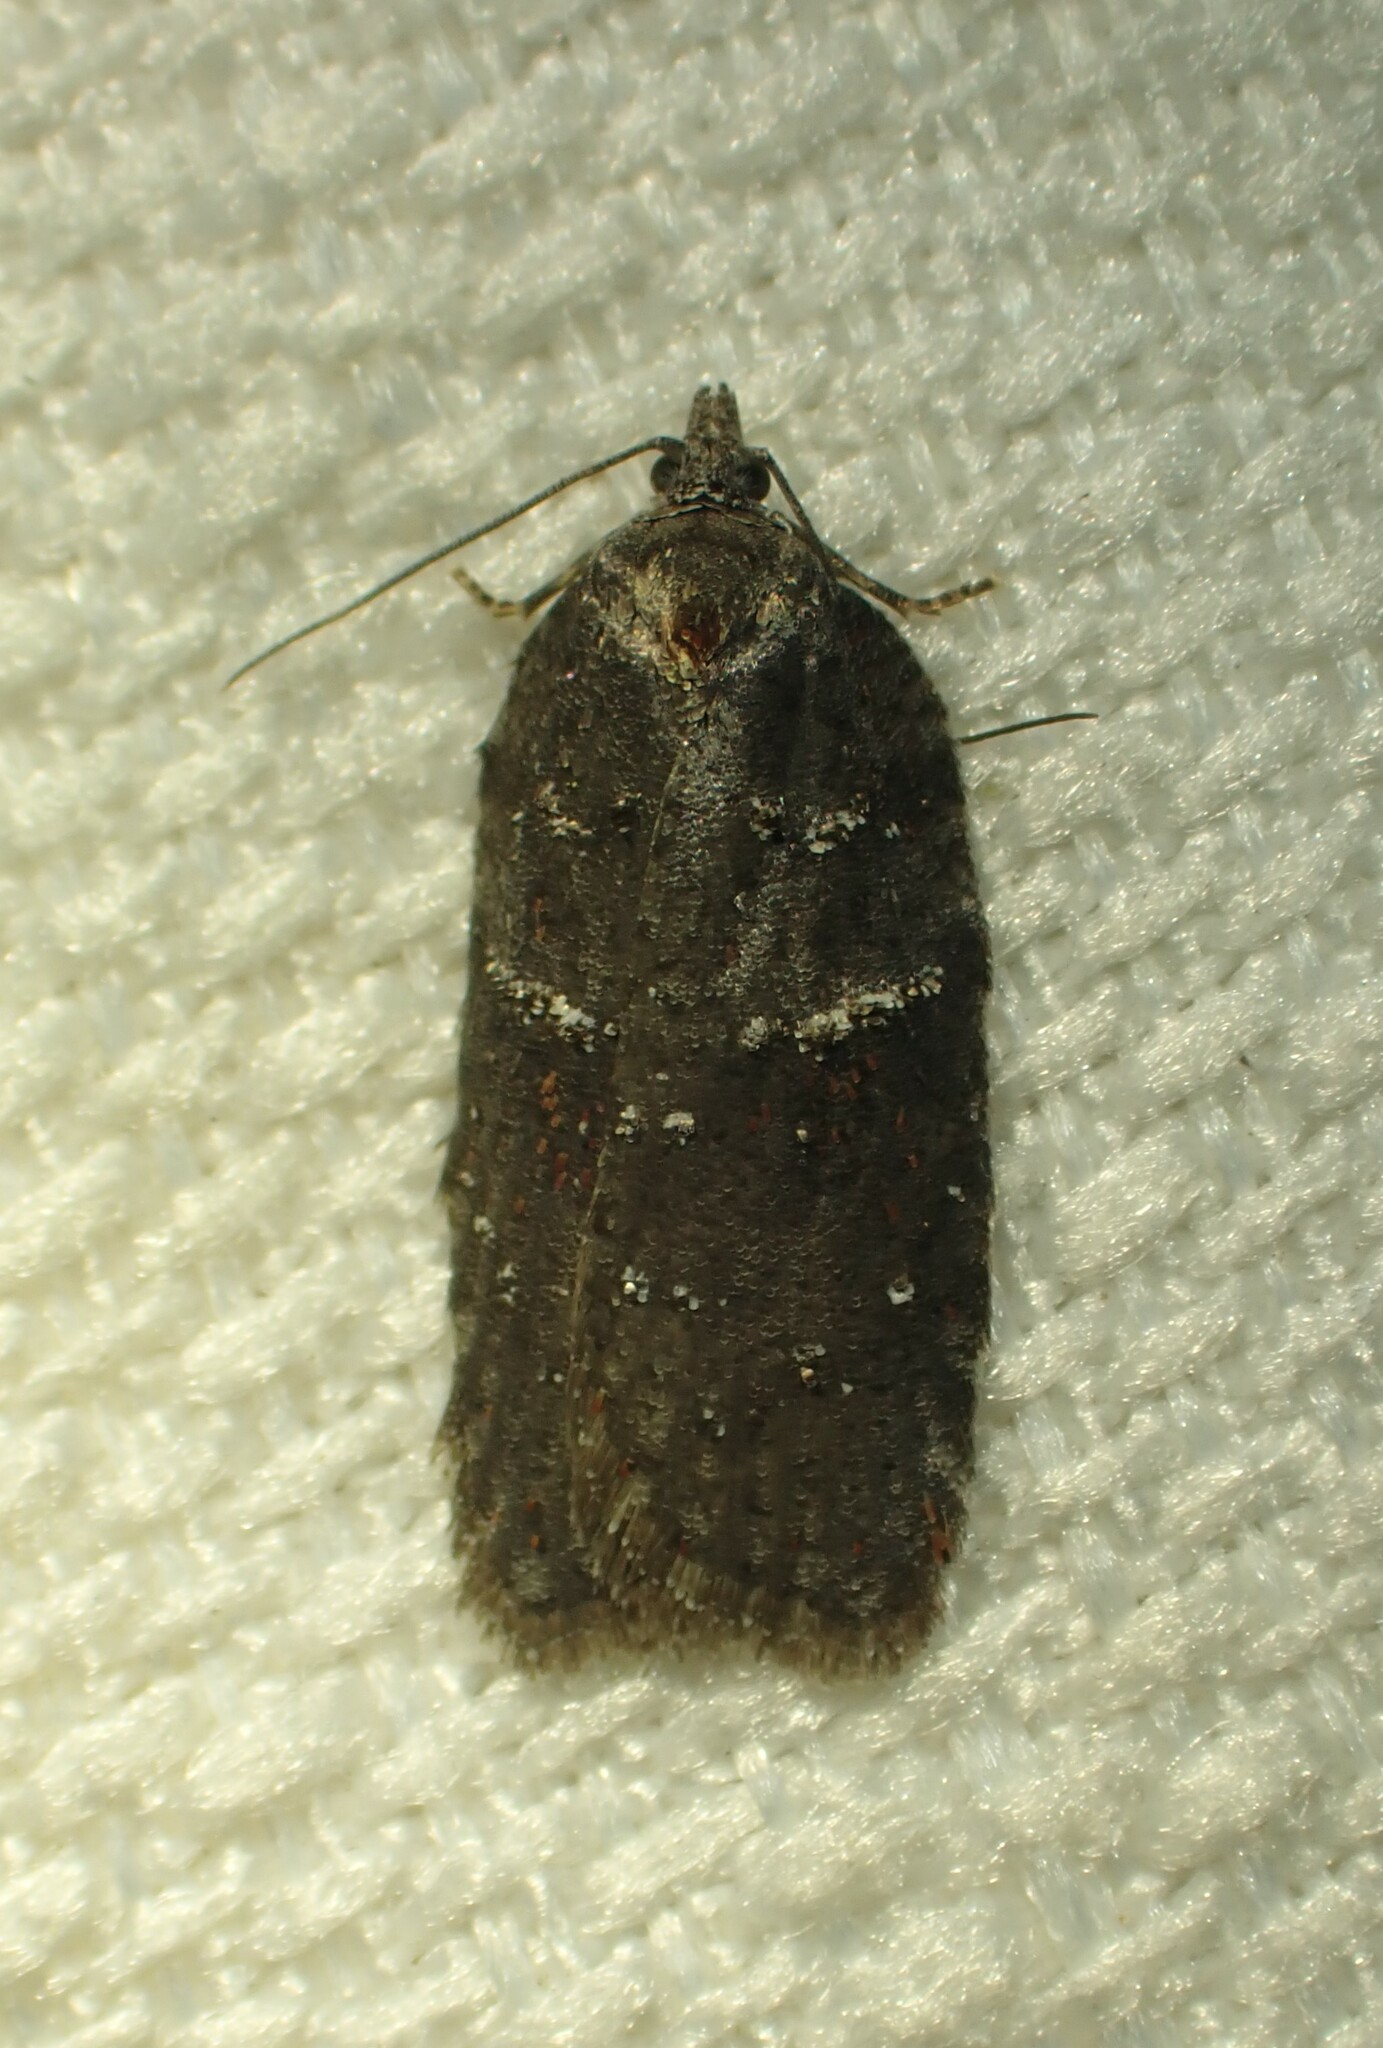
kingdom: Animalia
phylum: Arthropoda
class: Insecta
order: Lepidoptera
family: Tortricidae
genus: Acleris
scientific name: Acleris caliginosana
